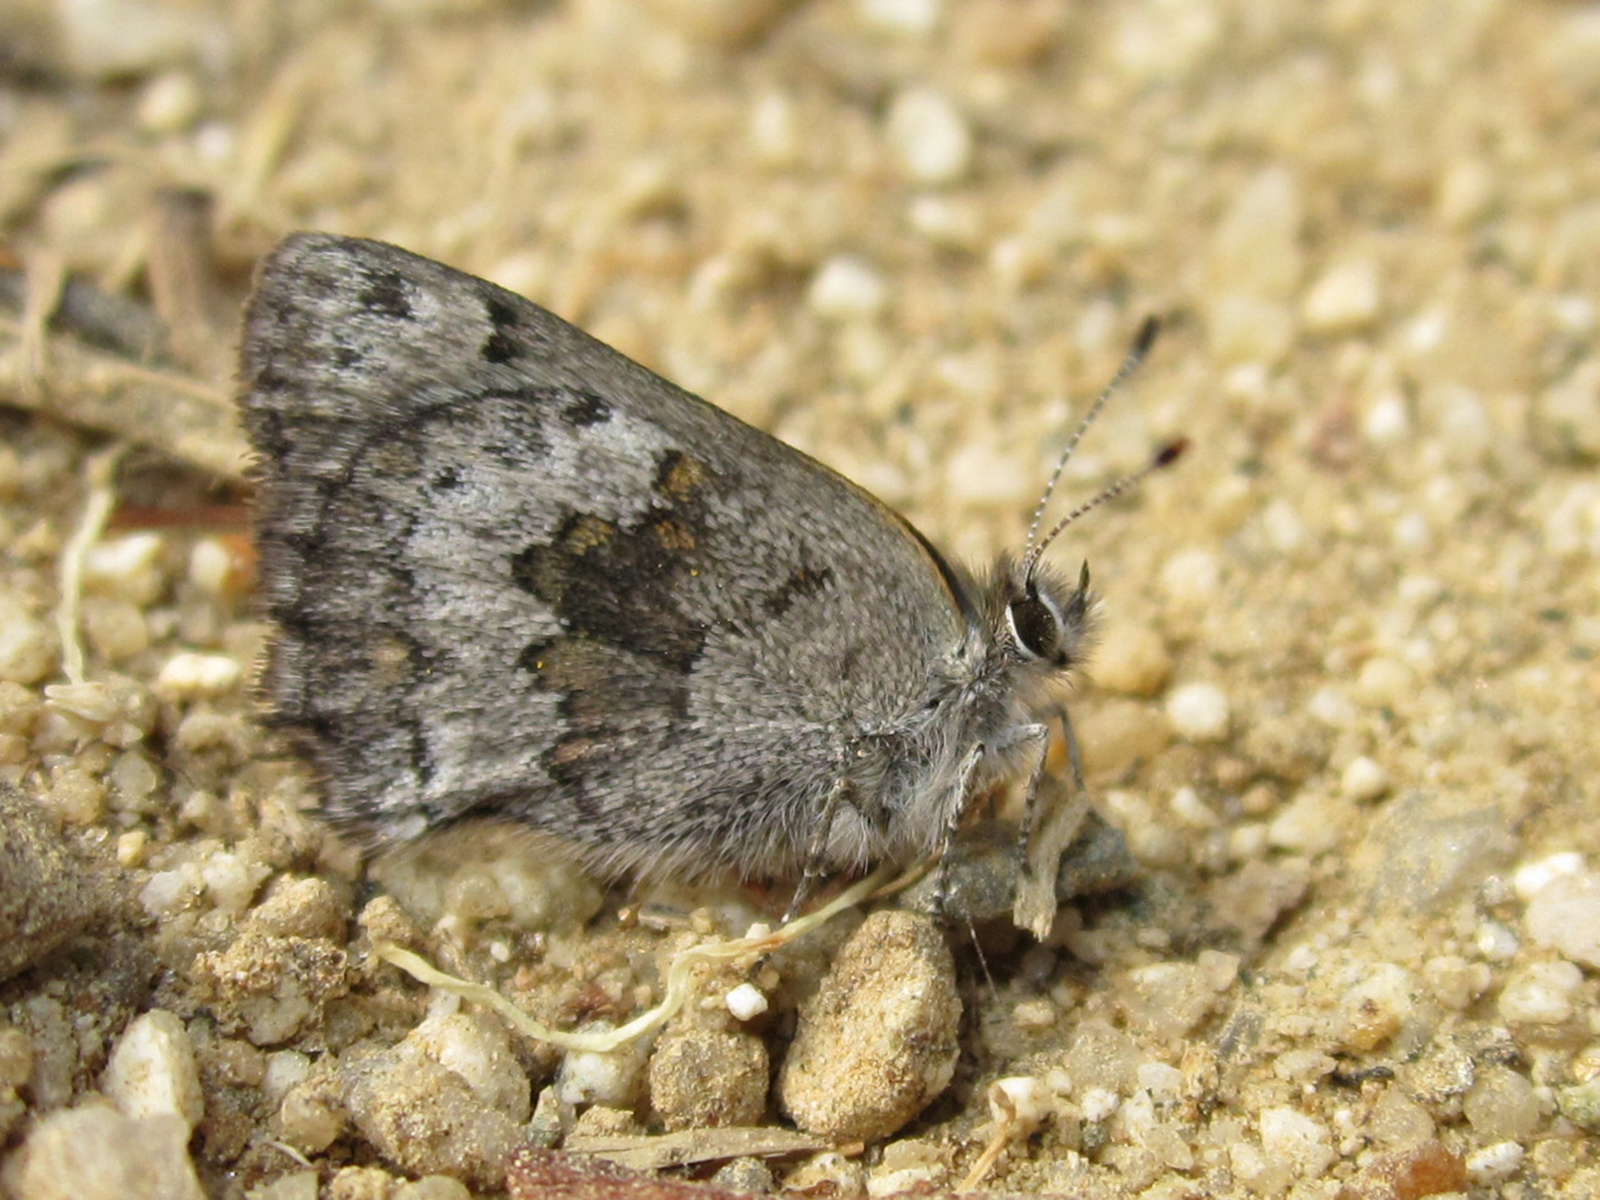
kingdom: Animalia
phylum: Arthropoda
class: Insecta
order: Lepidoptera
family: Lycaenidae
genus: Strymon
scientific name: Strymon
